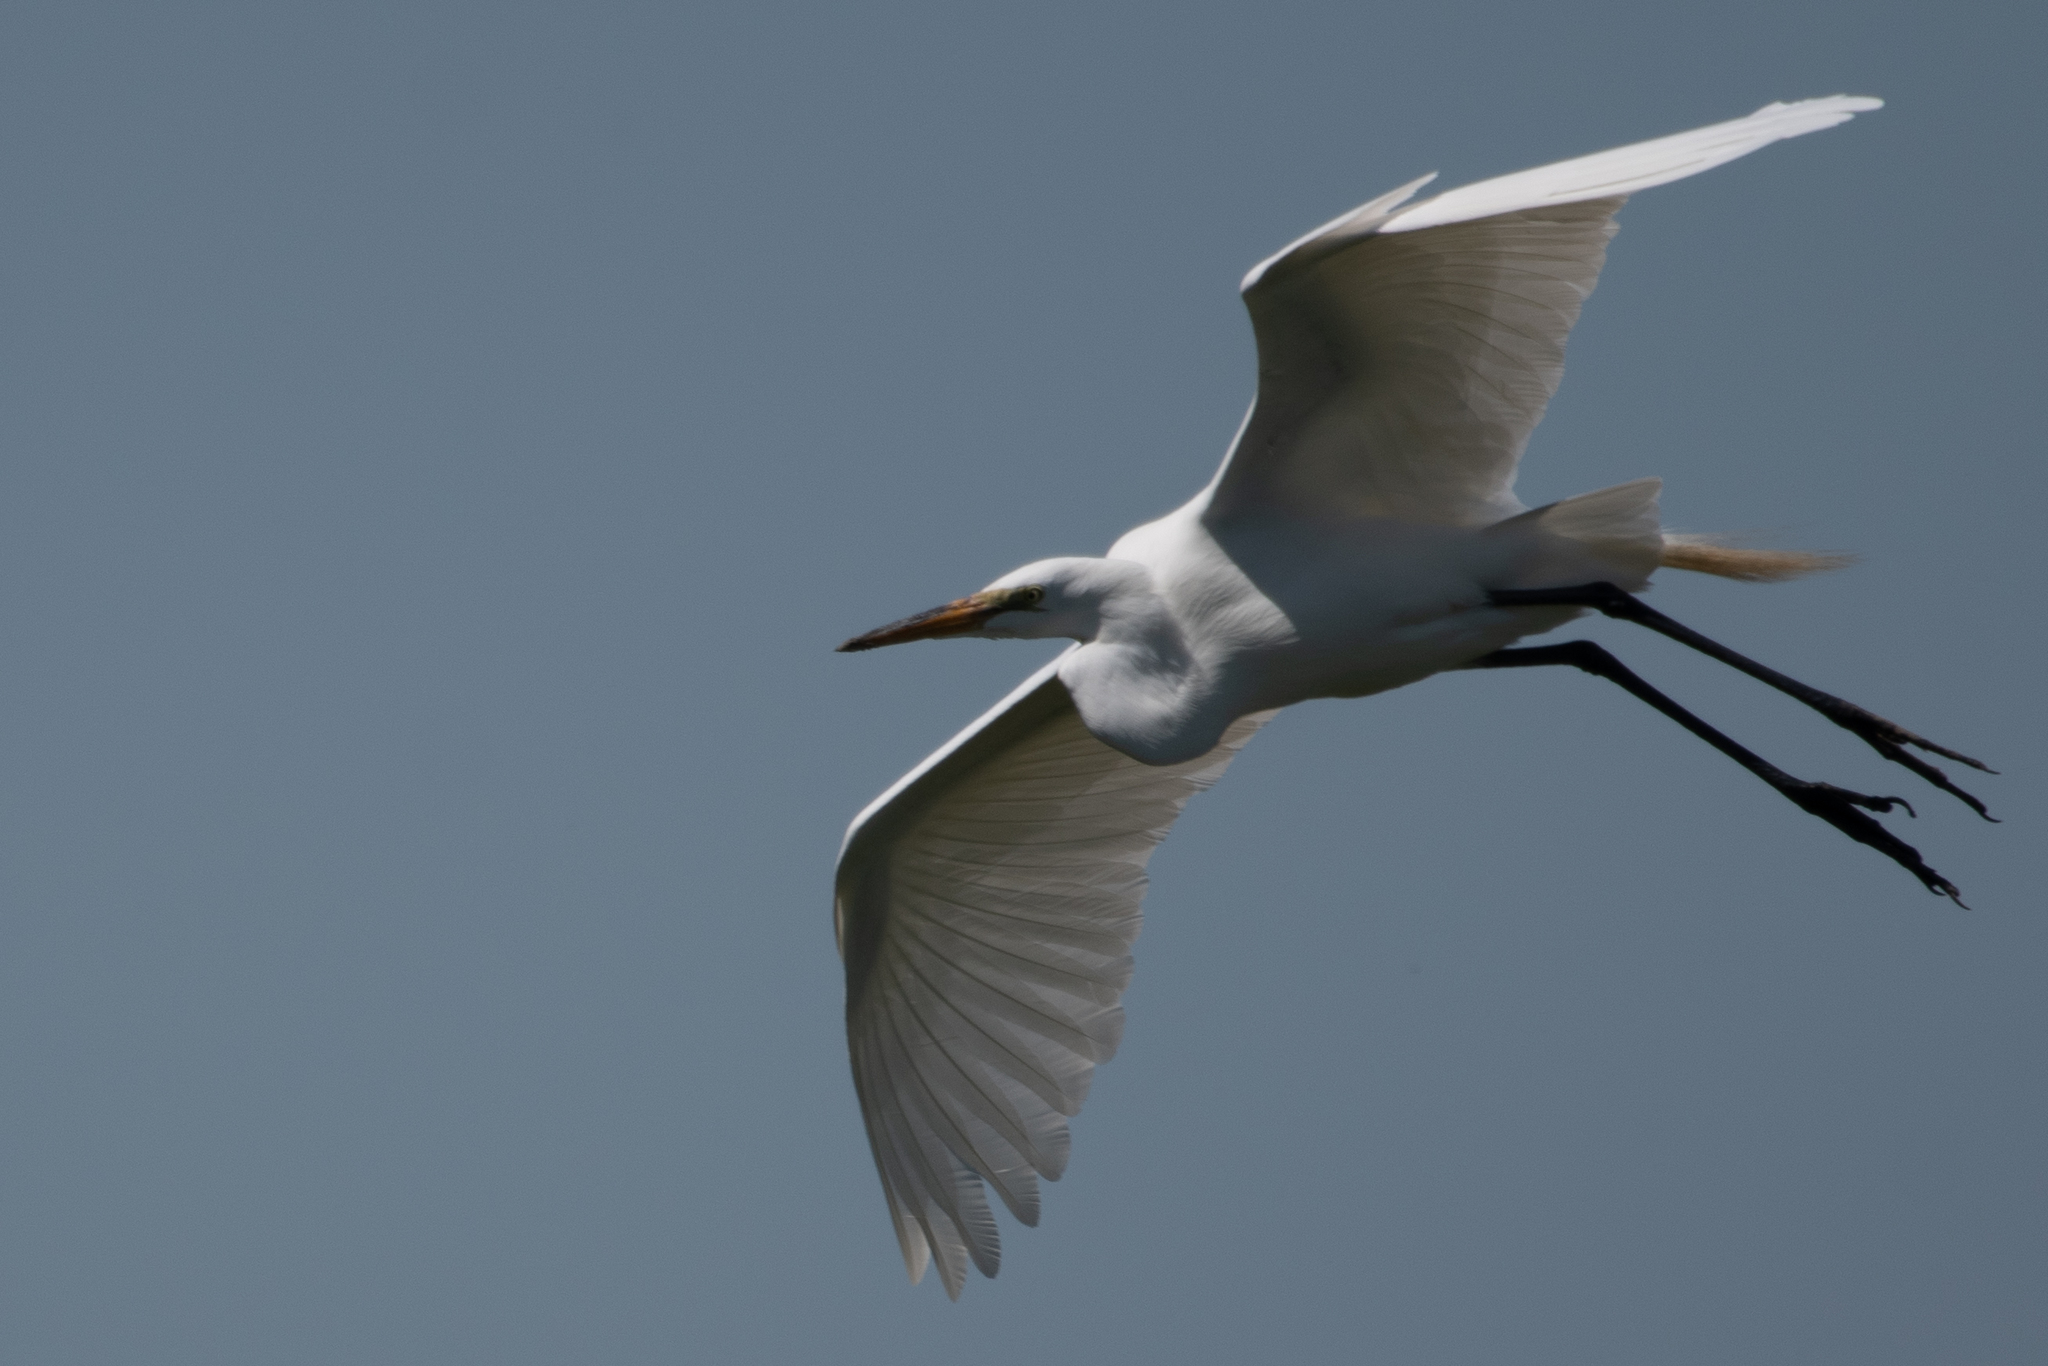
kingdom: Animalia
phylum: Chordata
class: Aves
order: Pelecaniformes
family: Ardeidae
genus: Ardea
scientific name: Ardea alba
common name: Great egret
